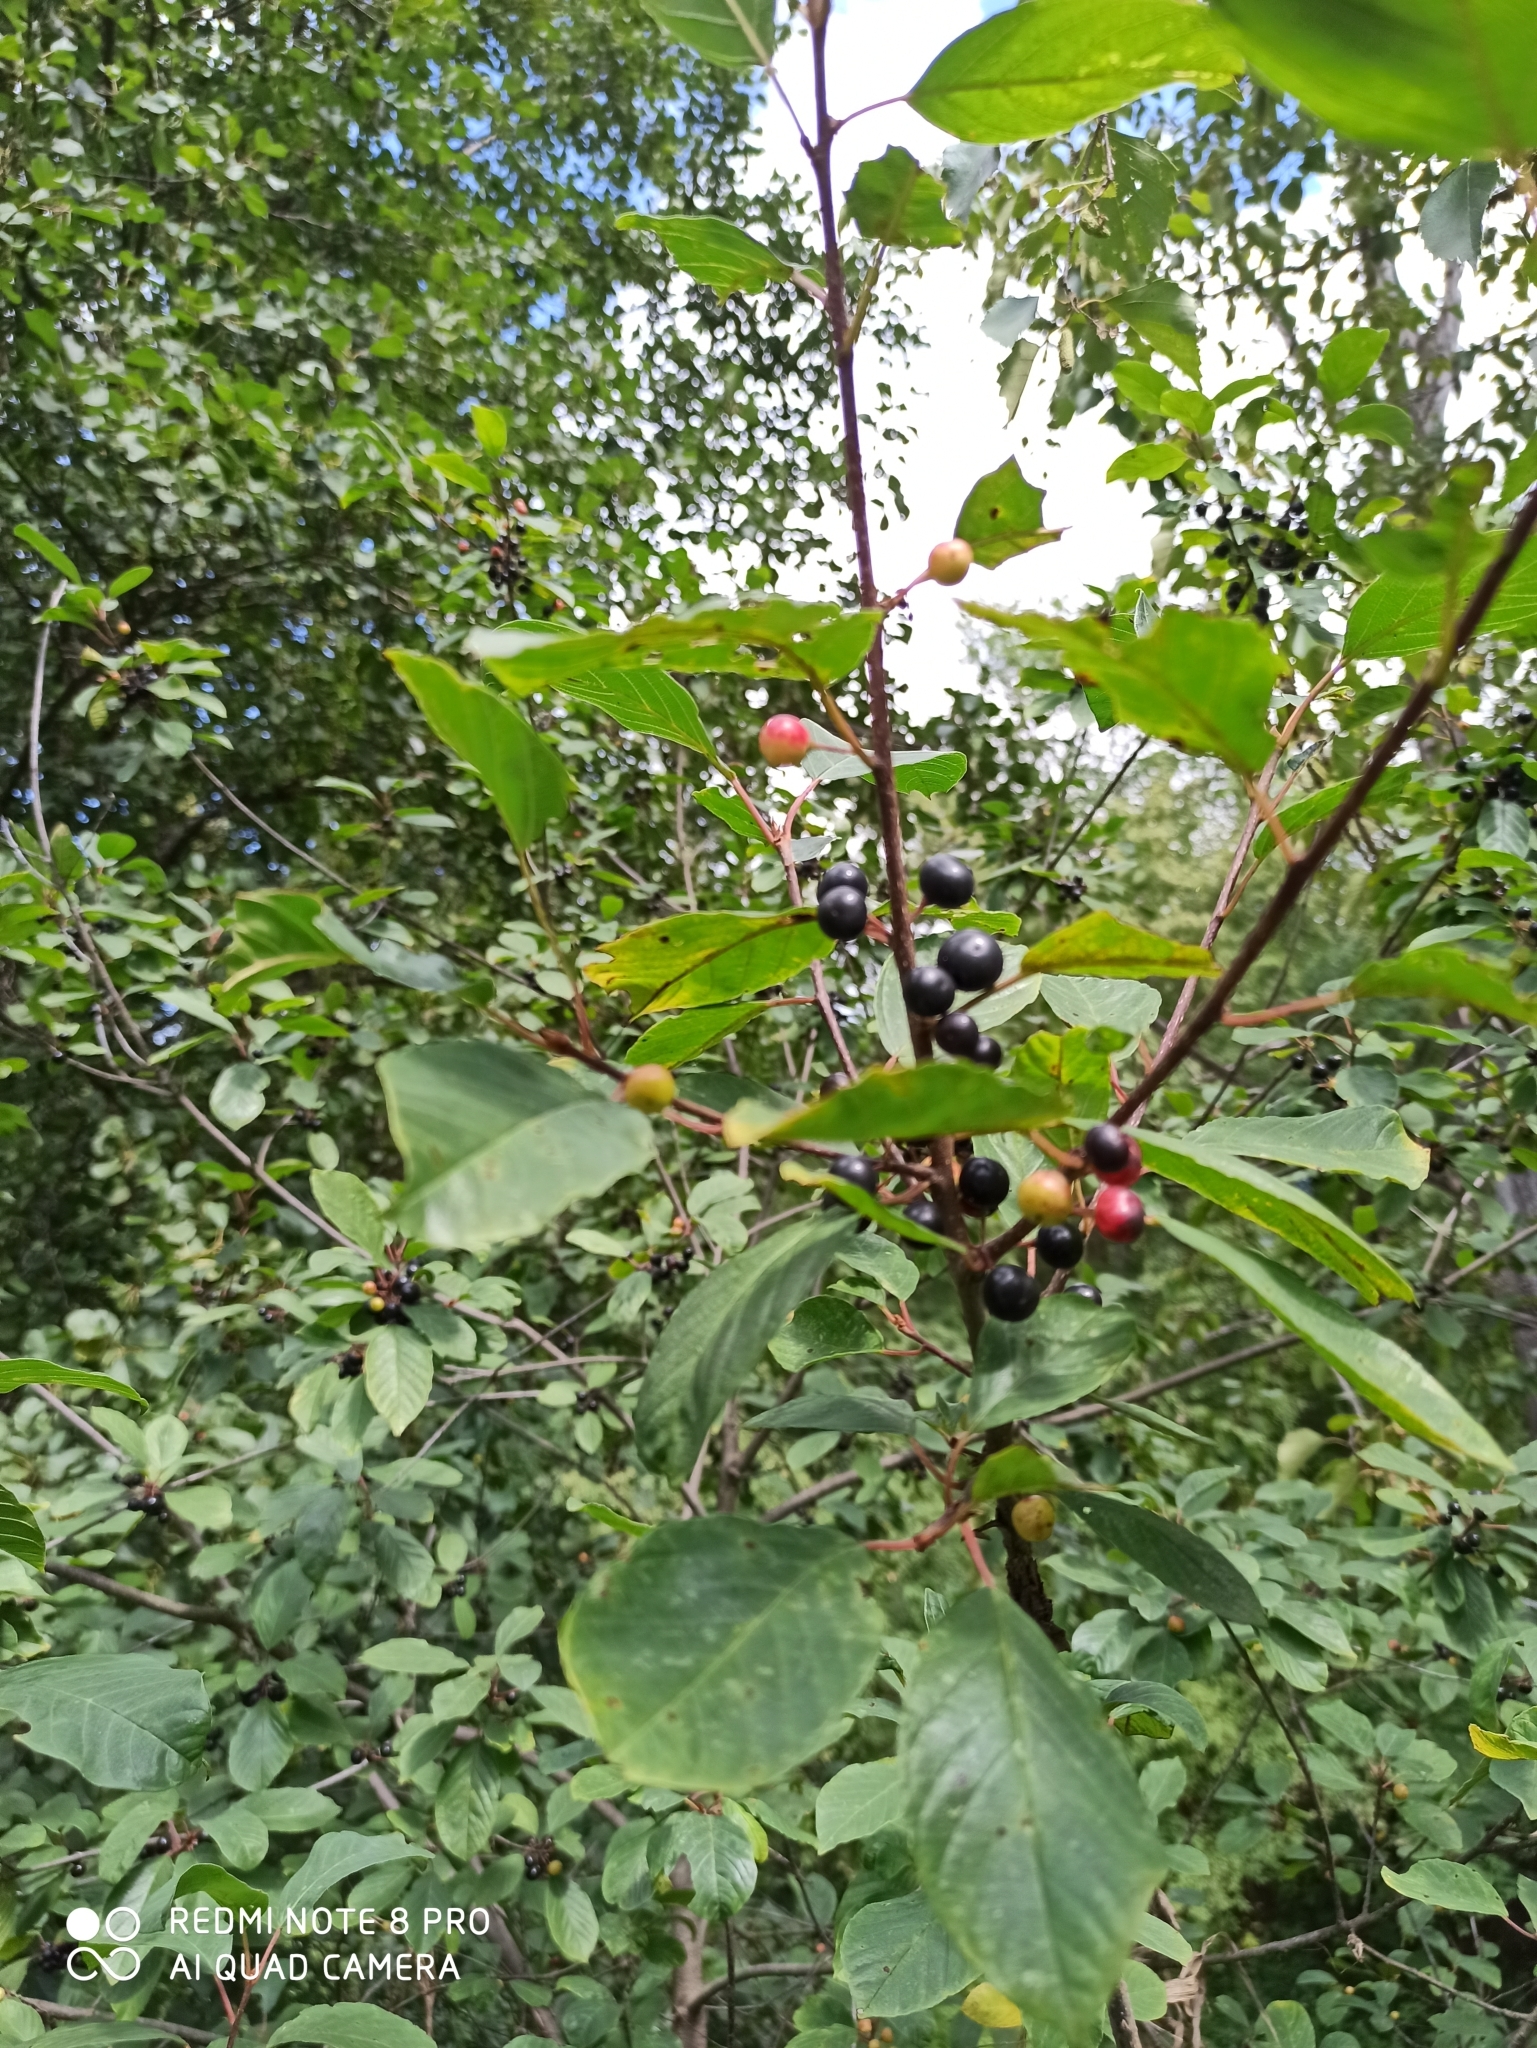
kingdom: Plantae
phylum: Tracheophyta
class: Magnoliopsida
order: Rosales
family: Rhamnaceae
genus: Frangula
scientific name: Frangula alnus
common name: Alder buckthorn
